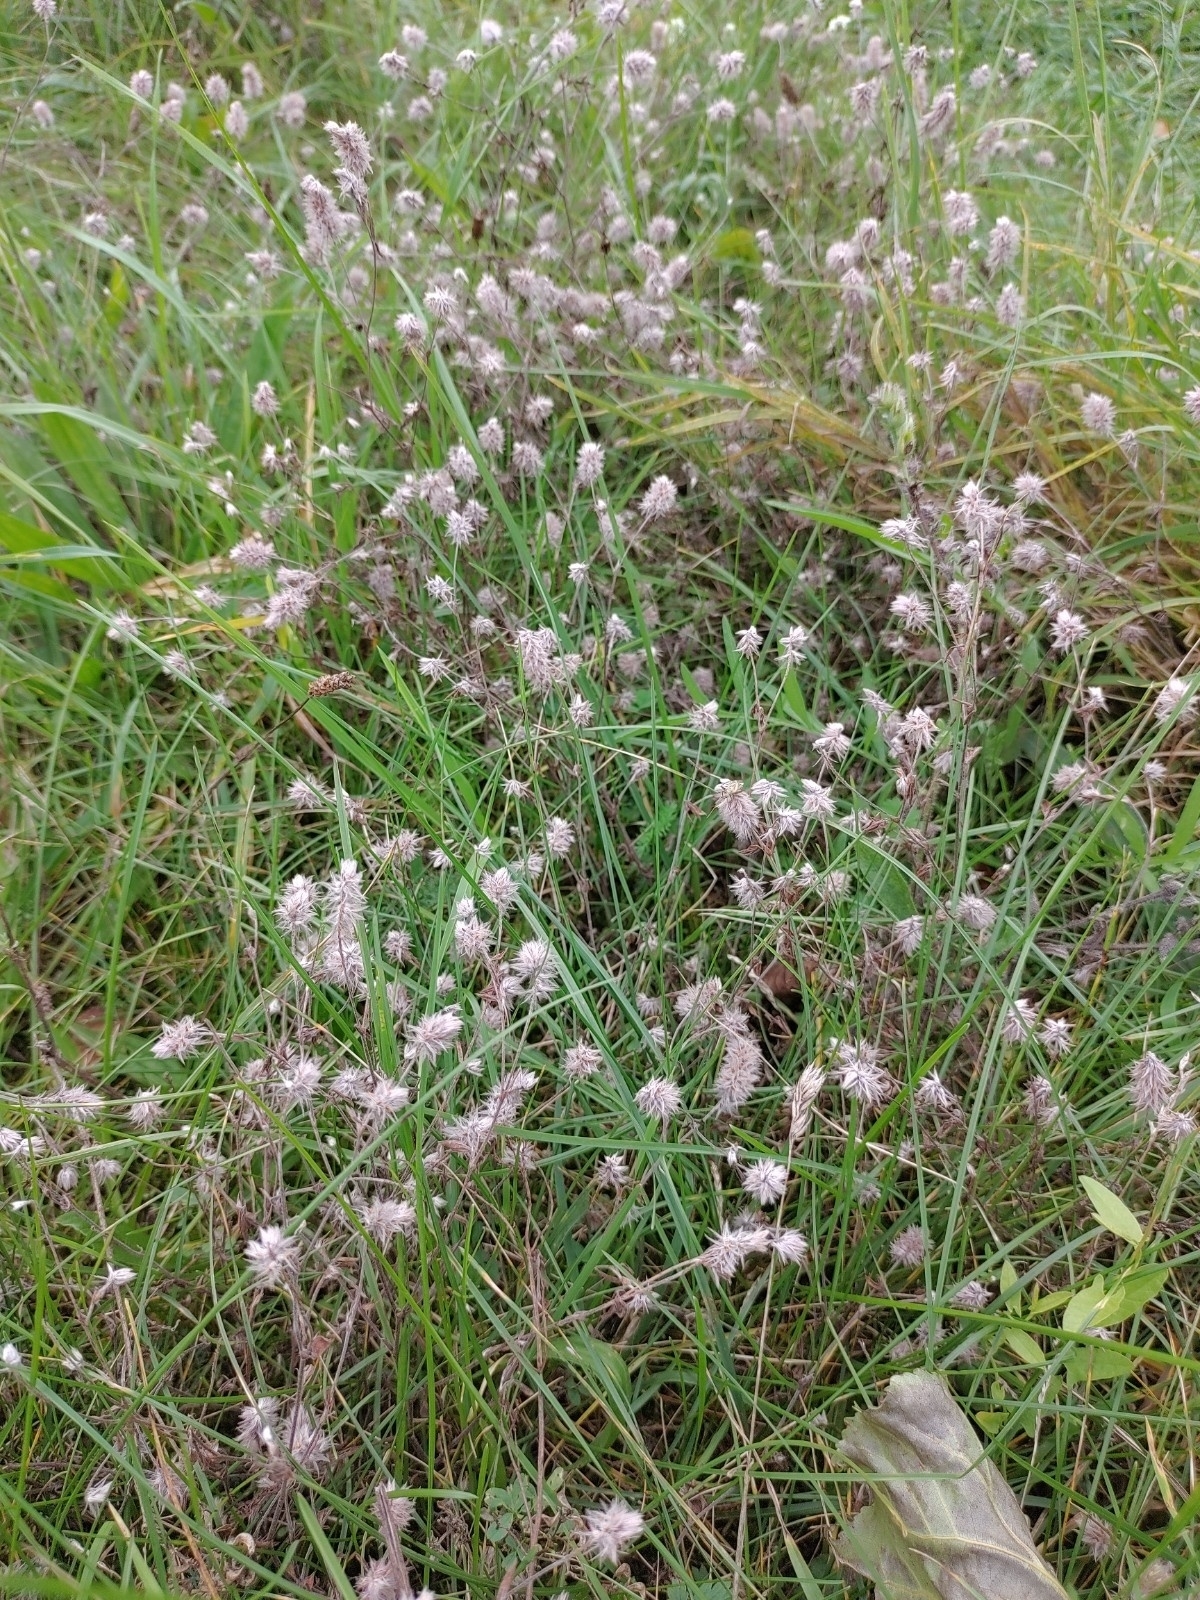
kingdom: Plantae
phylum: Tracheophyta
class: Magnoliopsida
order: Fabales
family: Fabaceae
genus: Trifolium
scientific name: Trifolium arvense
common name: Hare's-foot clover
